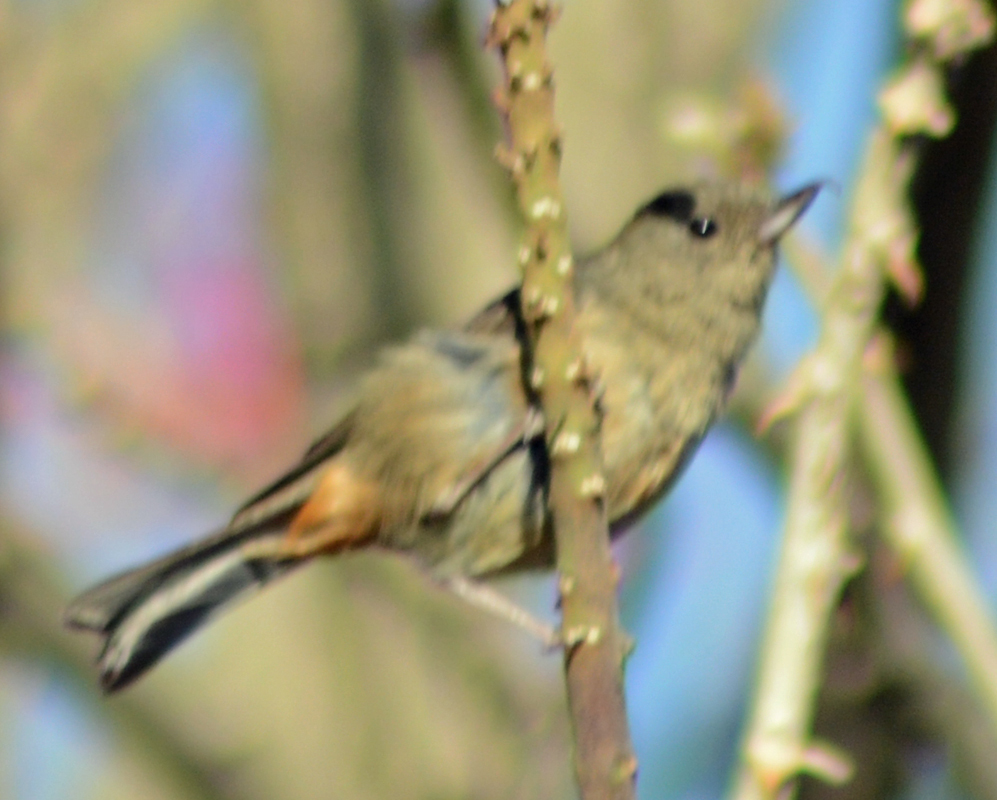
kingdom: Animalia
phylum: Chordata
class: Aves
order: Passeriformes
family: Thraupidae
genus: Diglossa
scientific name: Diglossa baritula
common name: Cinnamon-bellied flowerpiercer
